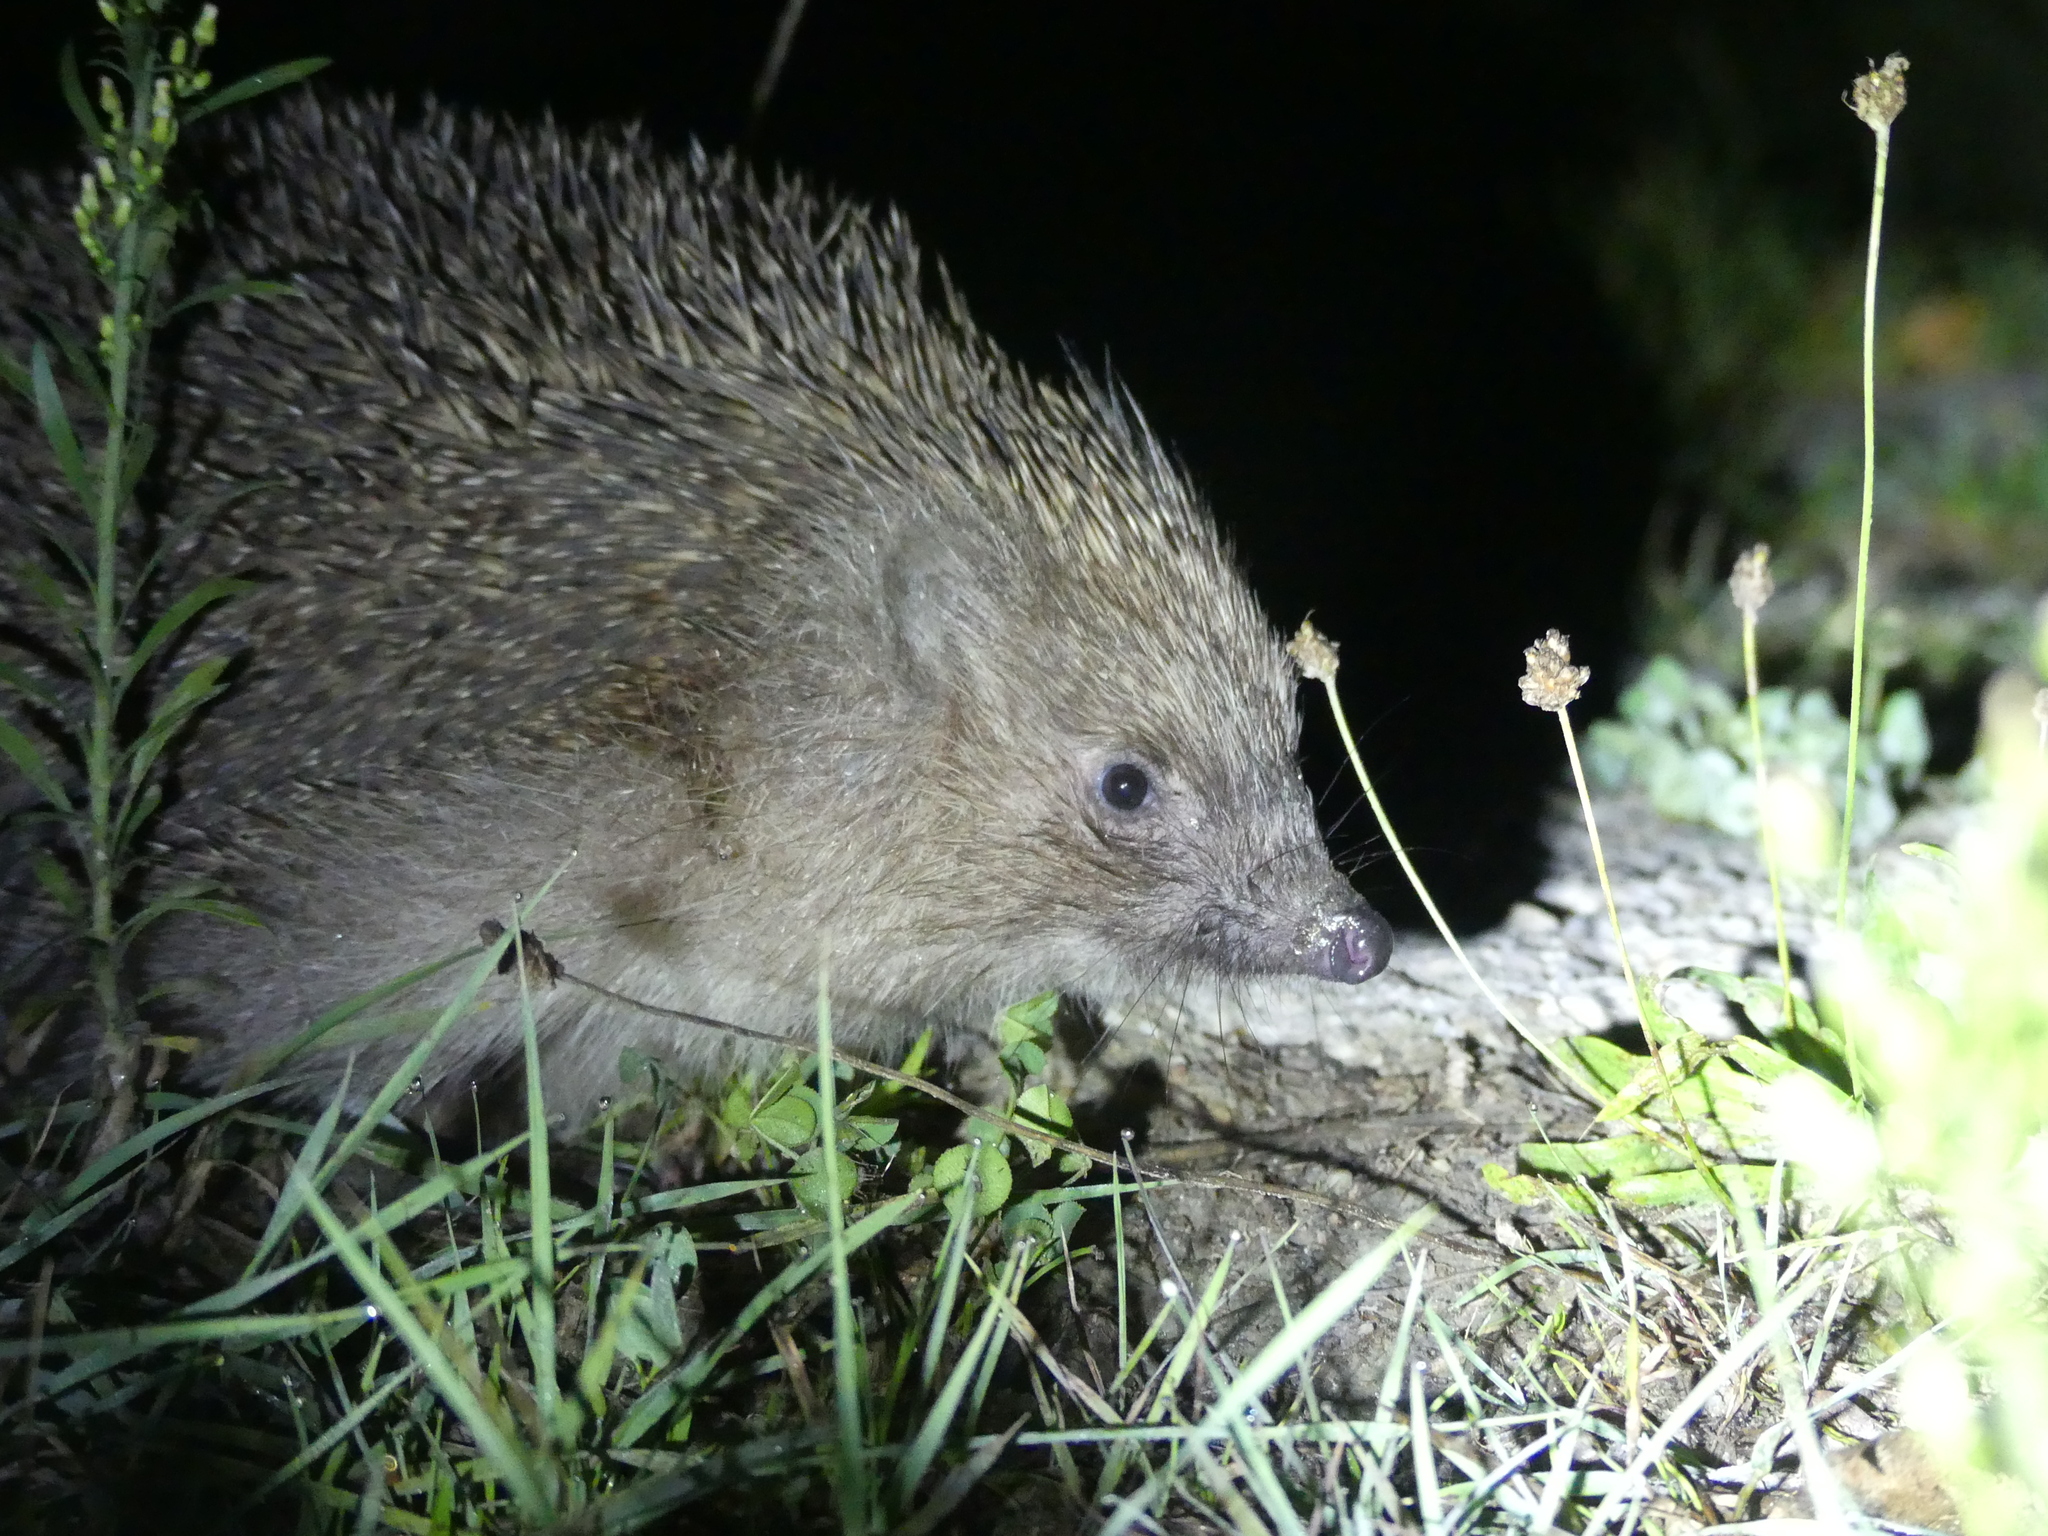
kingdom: Animalia
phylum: Chordata
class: Mammalia
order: Erinaceomorpha
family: Erinaceidae
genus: Erinaceus
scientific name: Erinaceus roumanicus
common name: Northern white-breasted hedgehog
